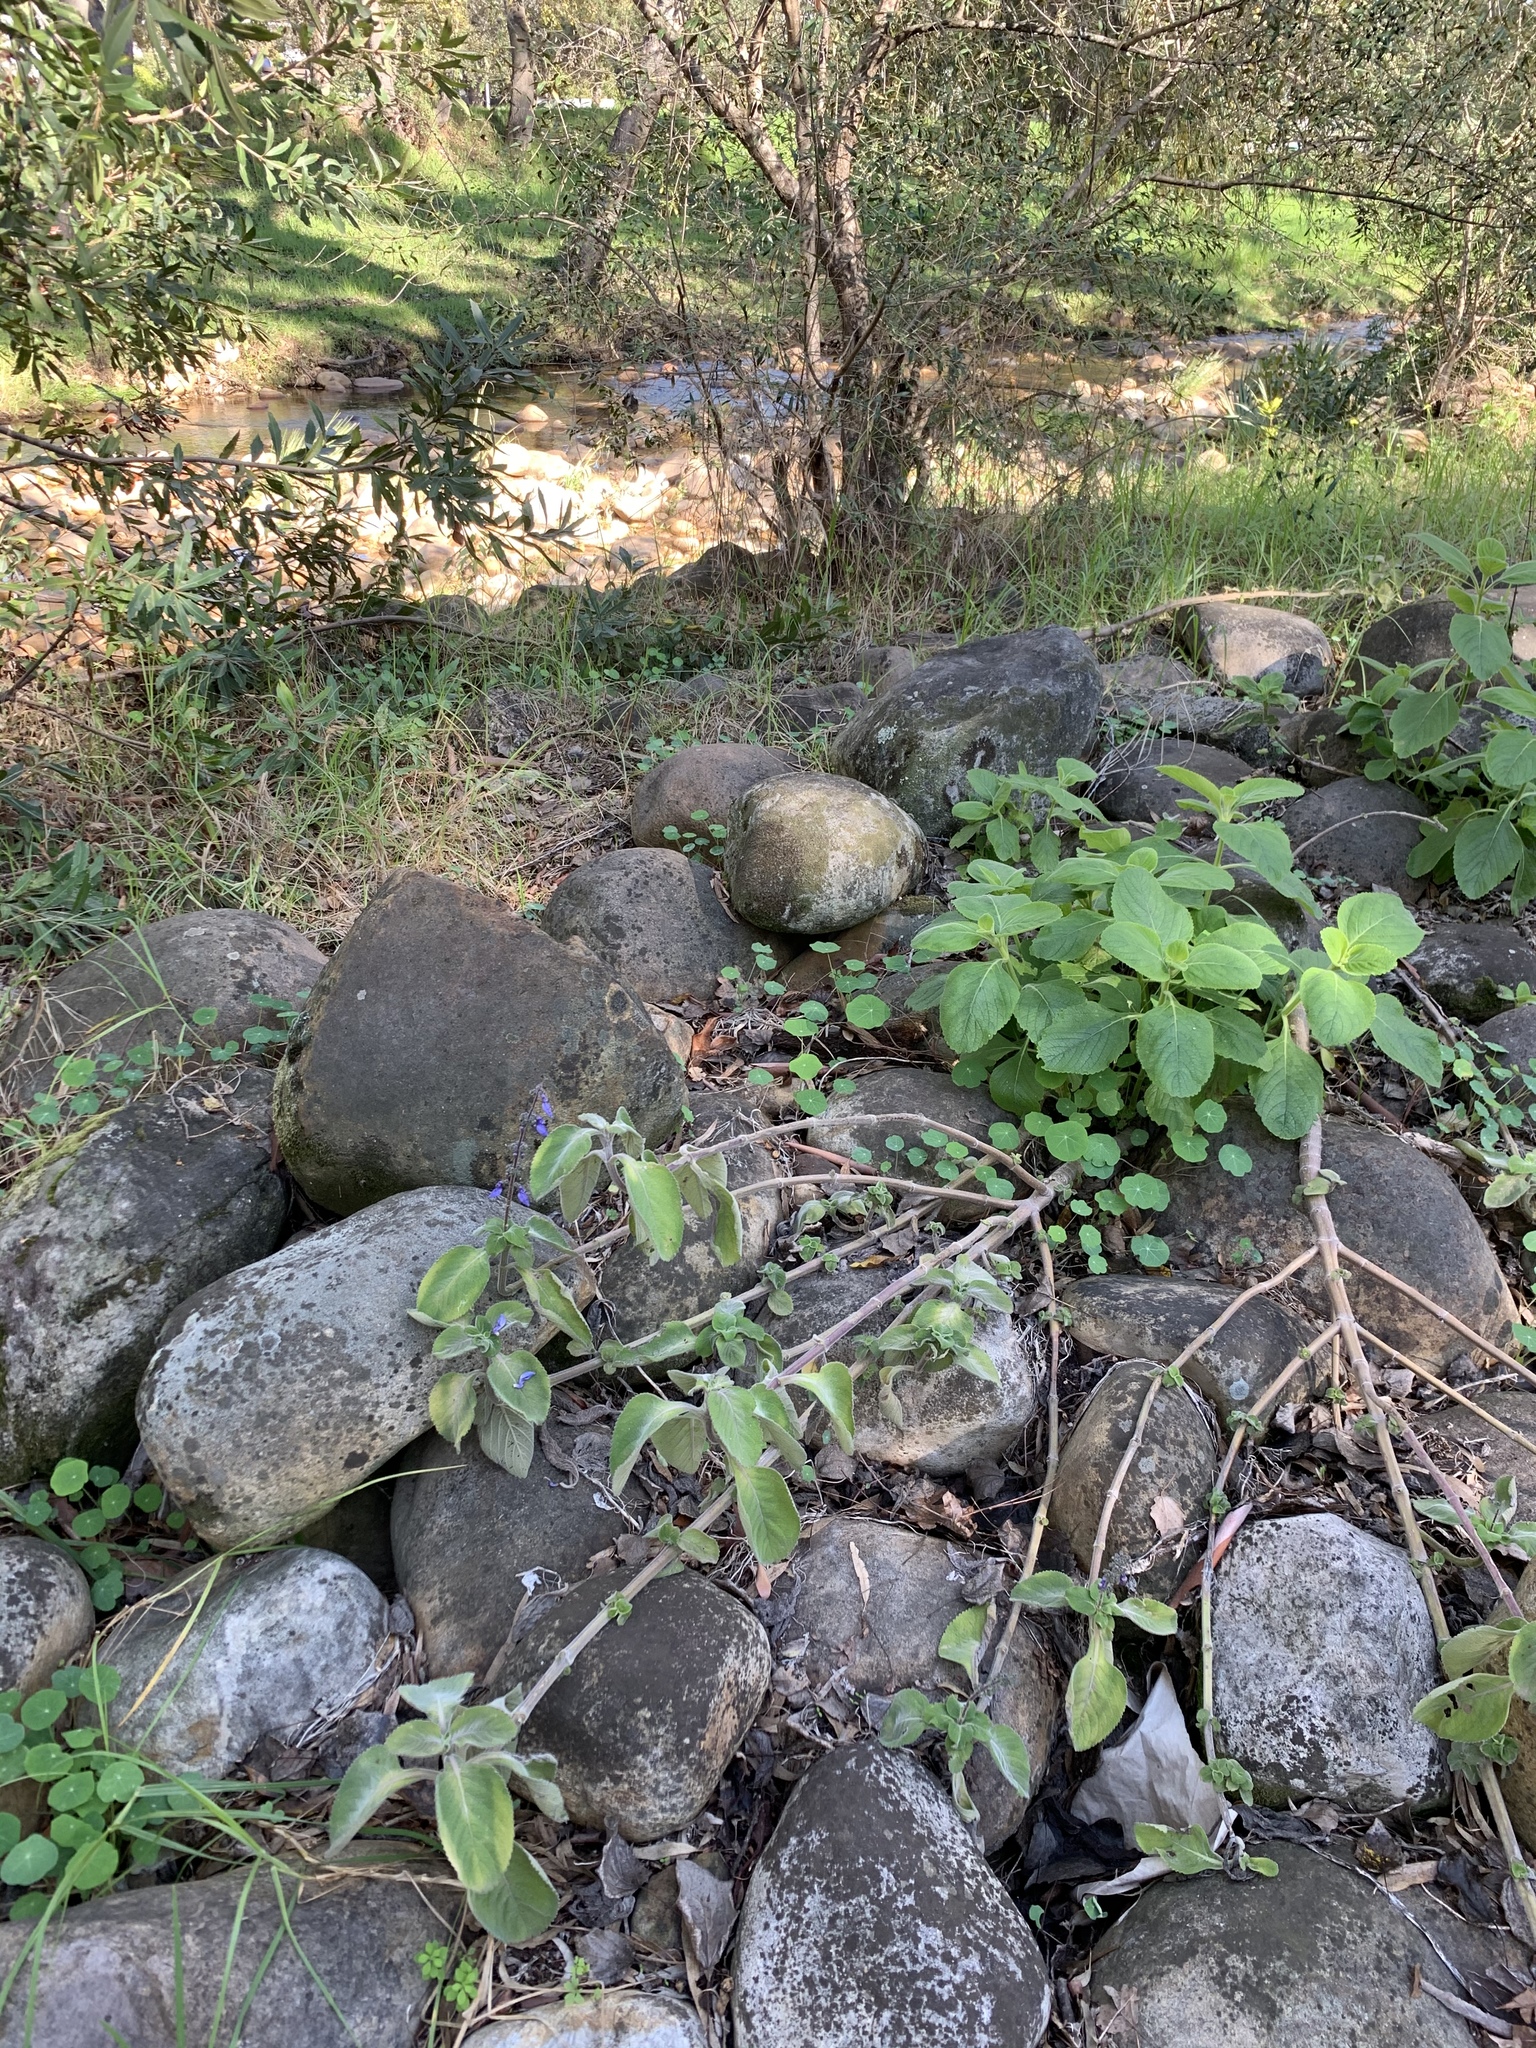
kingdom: Plantae
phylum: Tracheophyta
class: Magnoliopsida
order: Lamiales
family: Lamiaceae
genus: Coleus
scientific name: Coleus barbatus
